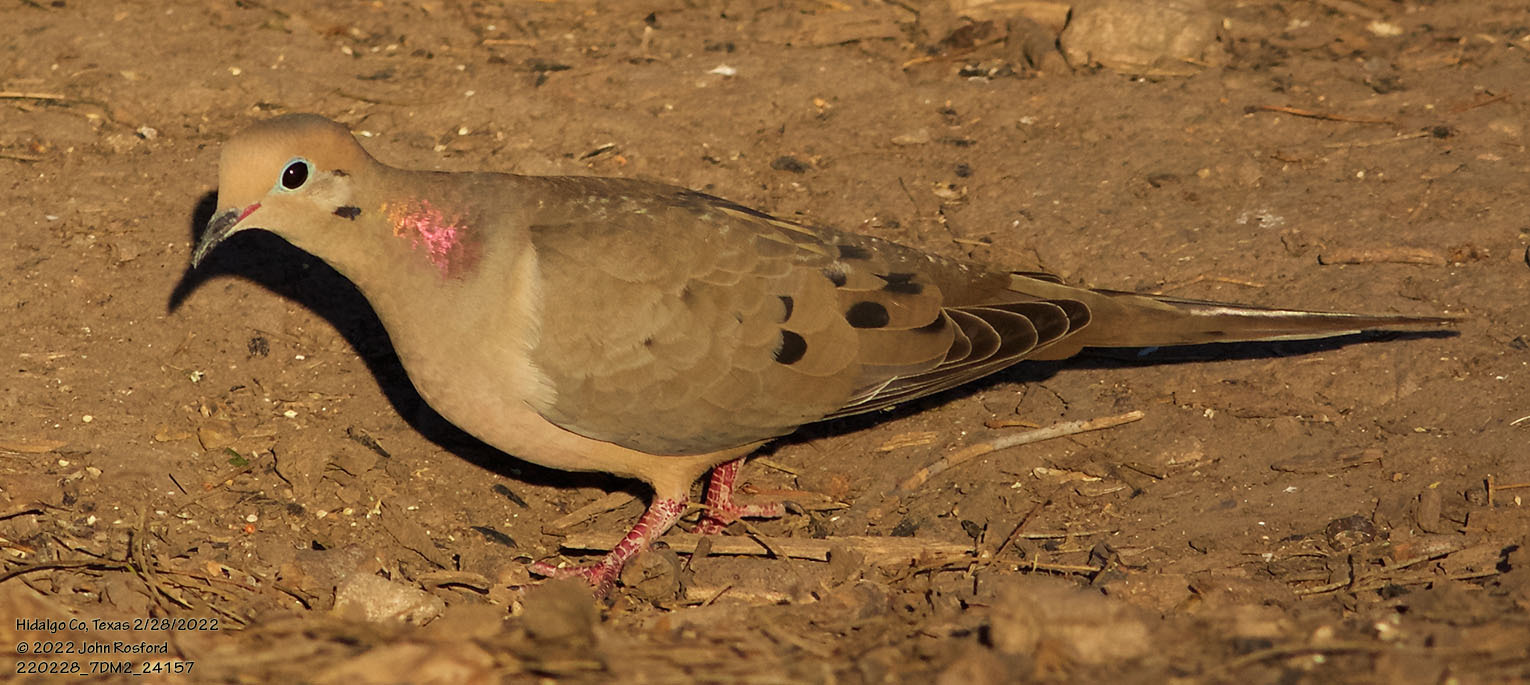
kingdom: Animalia
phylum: Chordata
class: Aves
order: Columbiformes
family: Columbidae
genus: Zenaida
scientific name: Zenaida macroura
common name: Mourning dove
